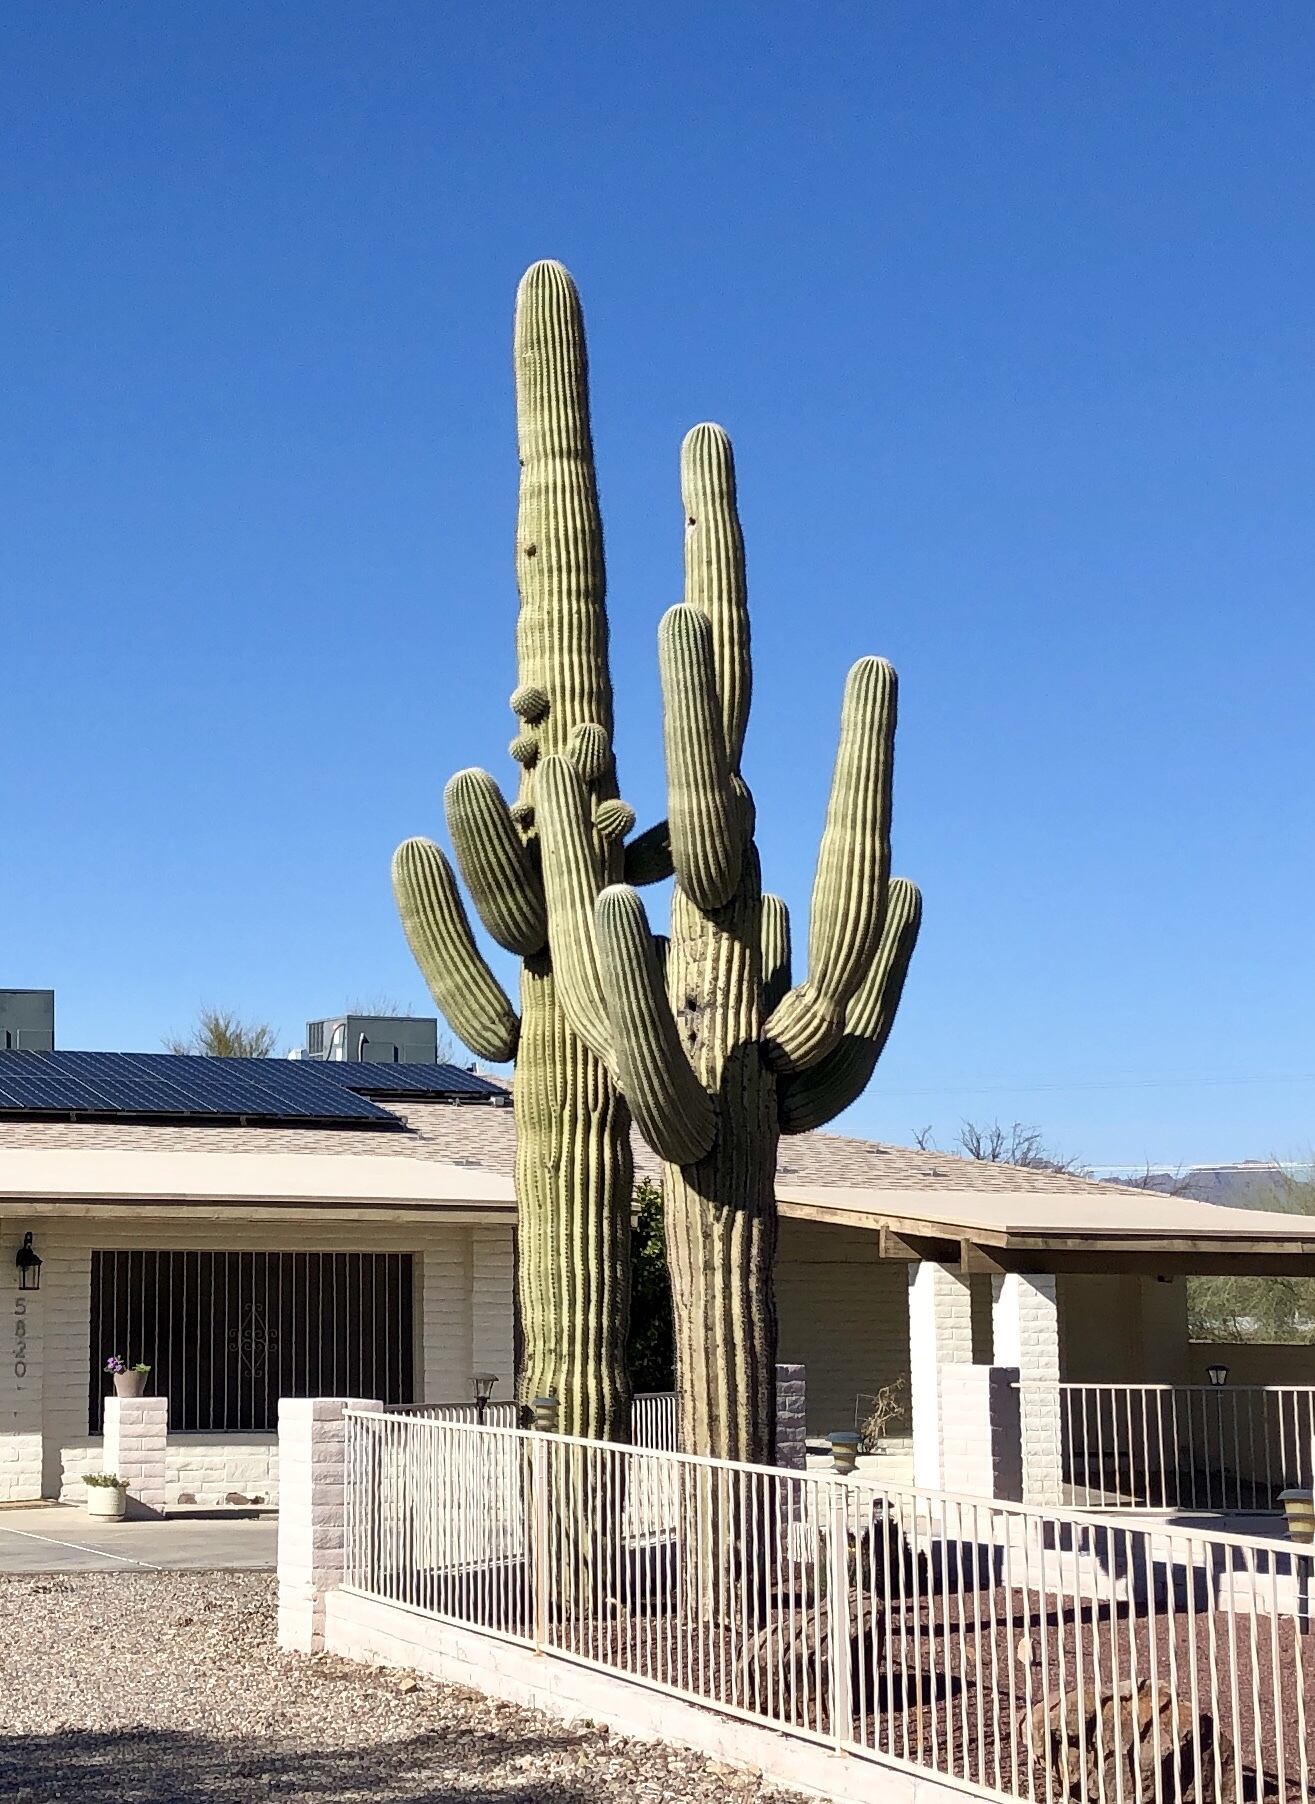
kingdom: Plantae
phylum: Tracheophyta
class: Magnoliopsida
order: Caryophyllales
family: Cactaceae
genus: Carnegiea
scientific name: Carnegiea gigantea
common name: Saguaro
